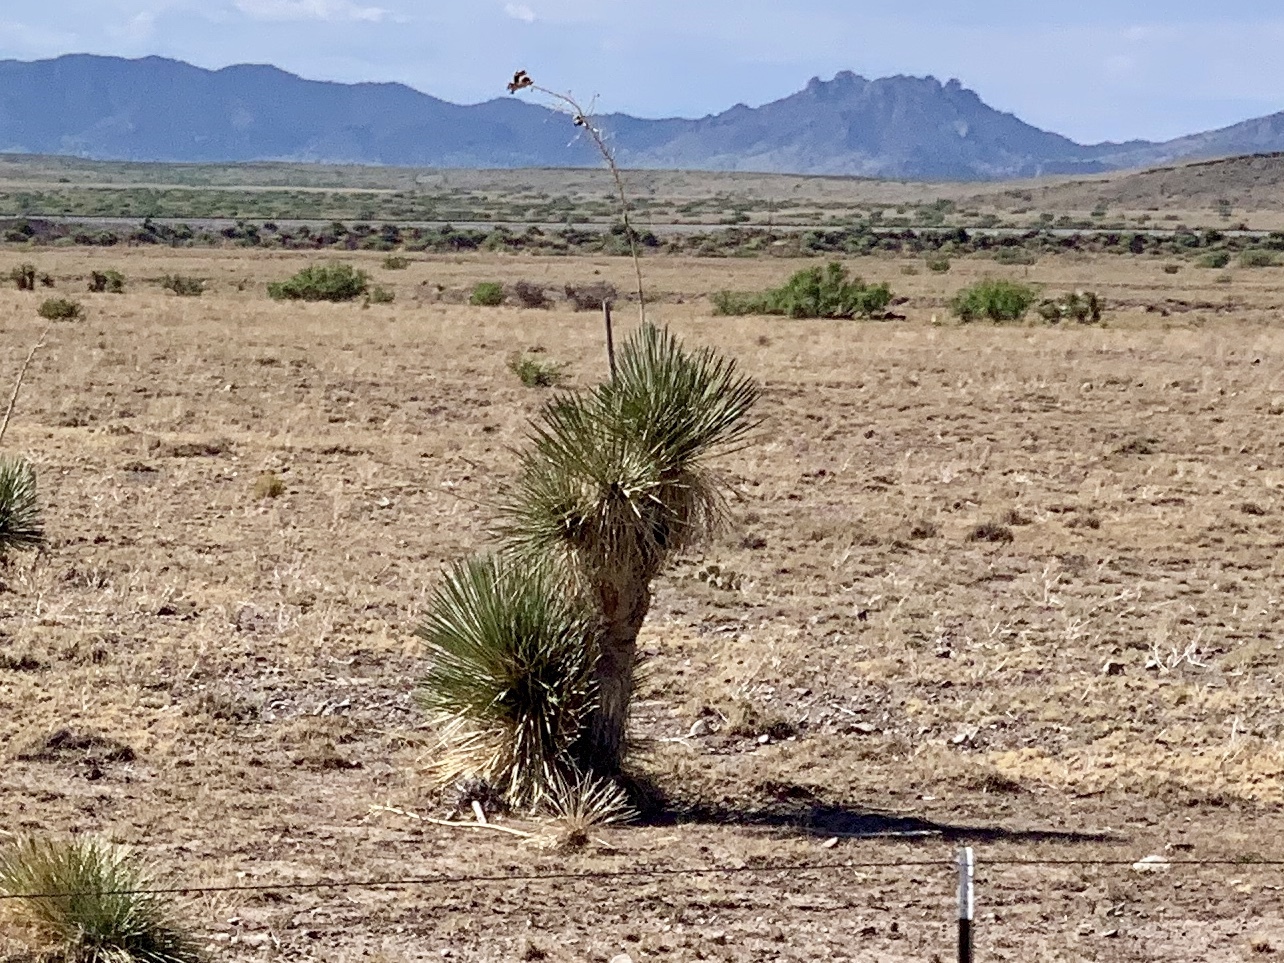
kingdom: Plantae
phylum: Tracheophyta
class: Liliopsida
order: Asparagales
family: Asparagaceae
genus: Yucca
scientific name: Yucca elata
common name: Palmella
